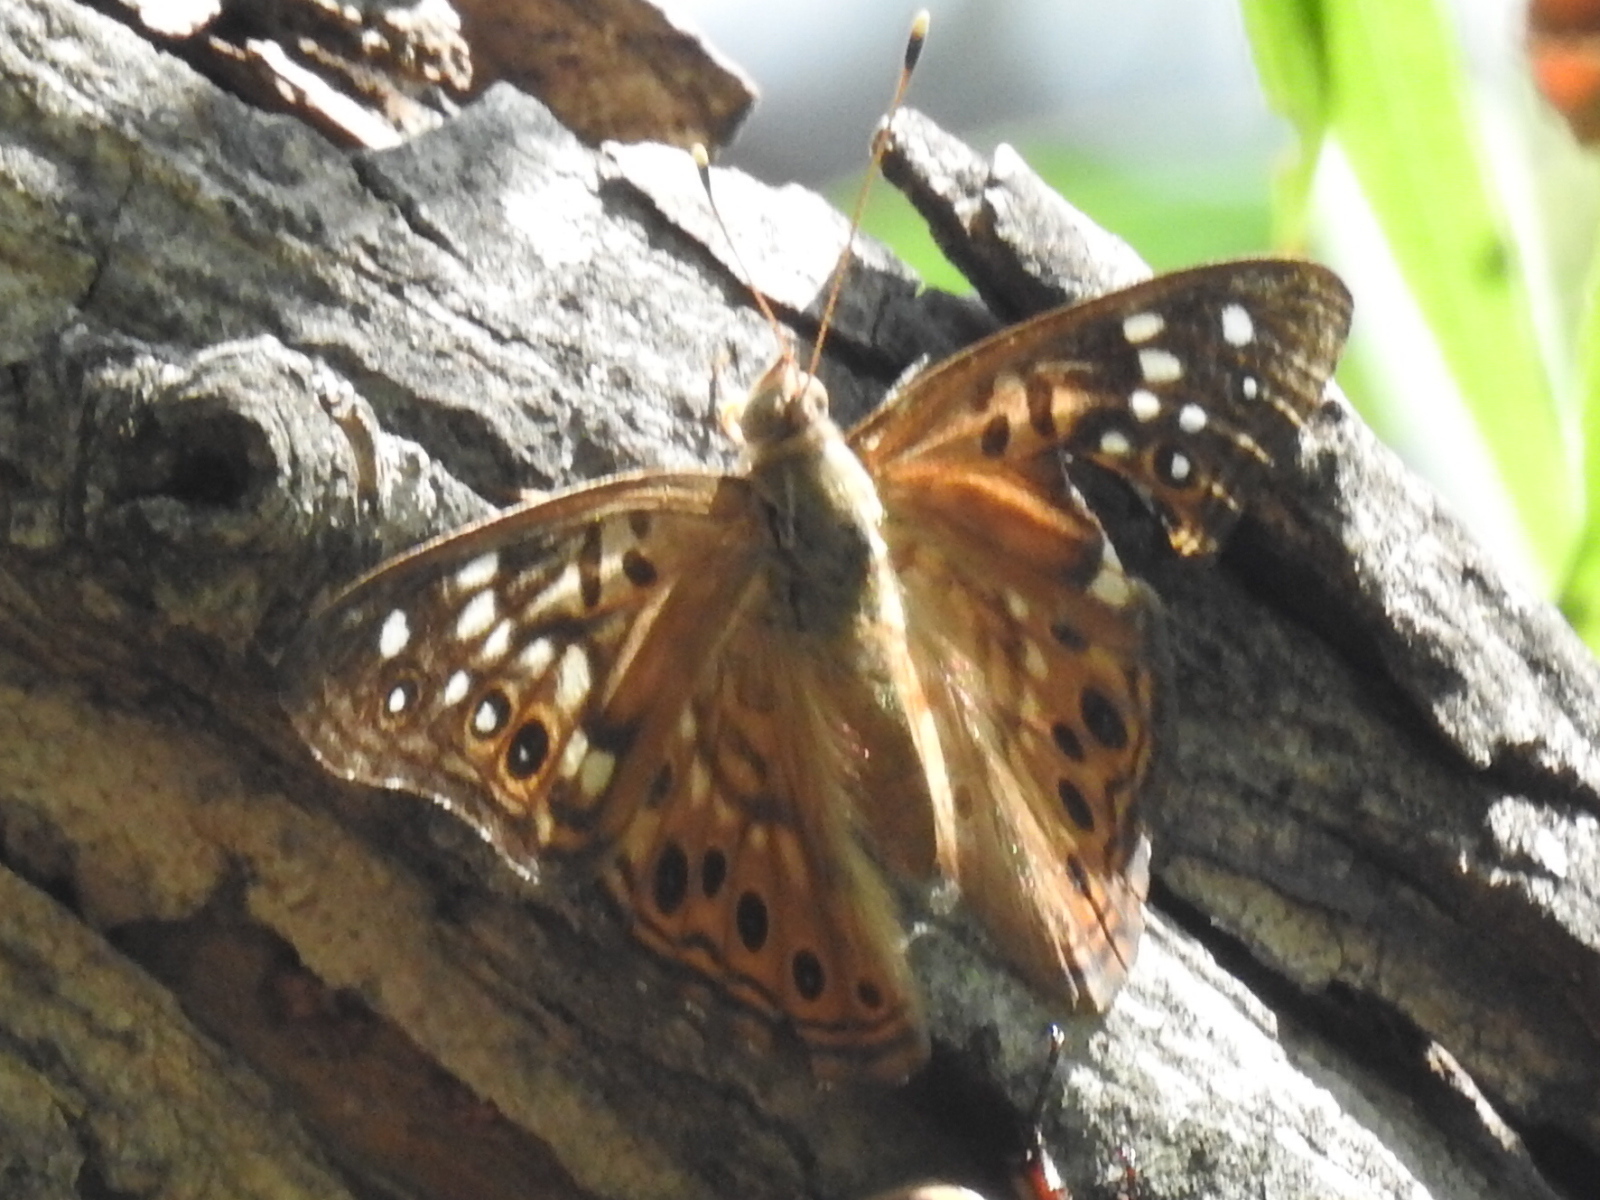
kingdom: Animalia
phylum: Arthropoda
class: Insecta
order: Lepidoptera
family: Nymphalidae
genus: Asterocampa
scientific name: Asterocampa celtis
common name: Hackberry emperor
